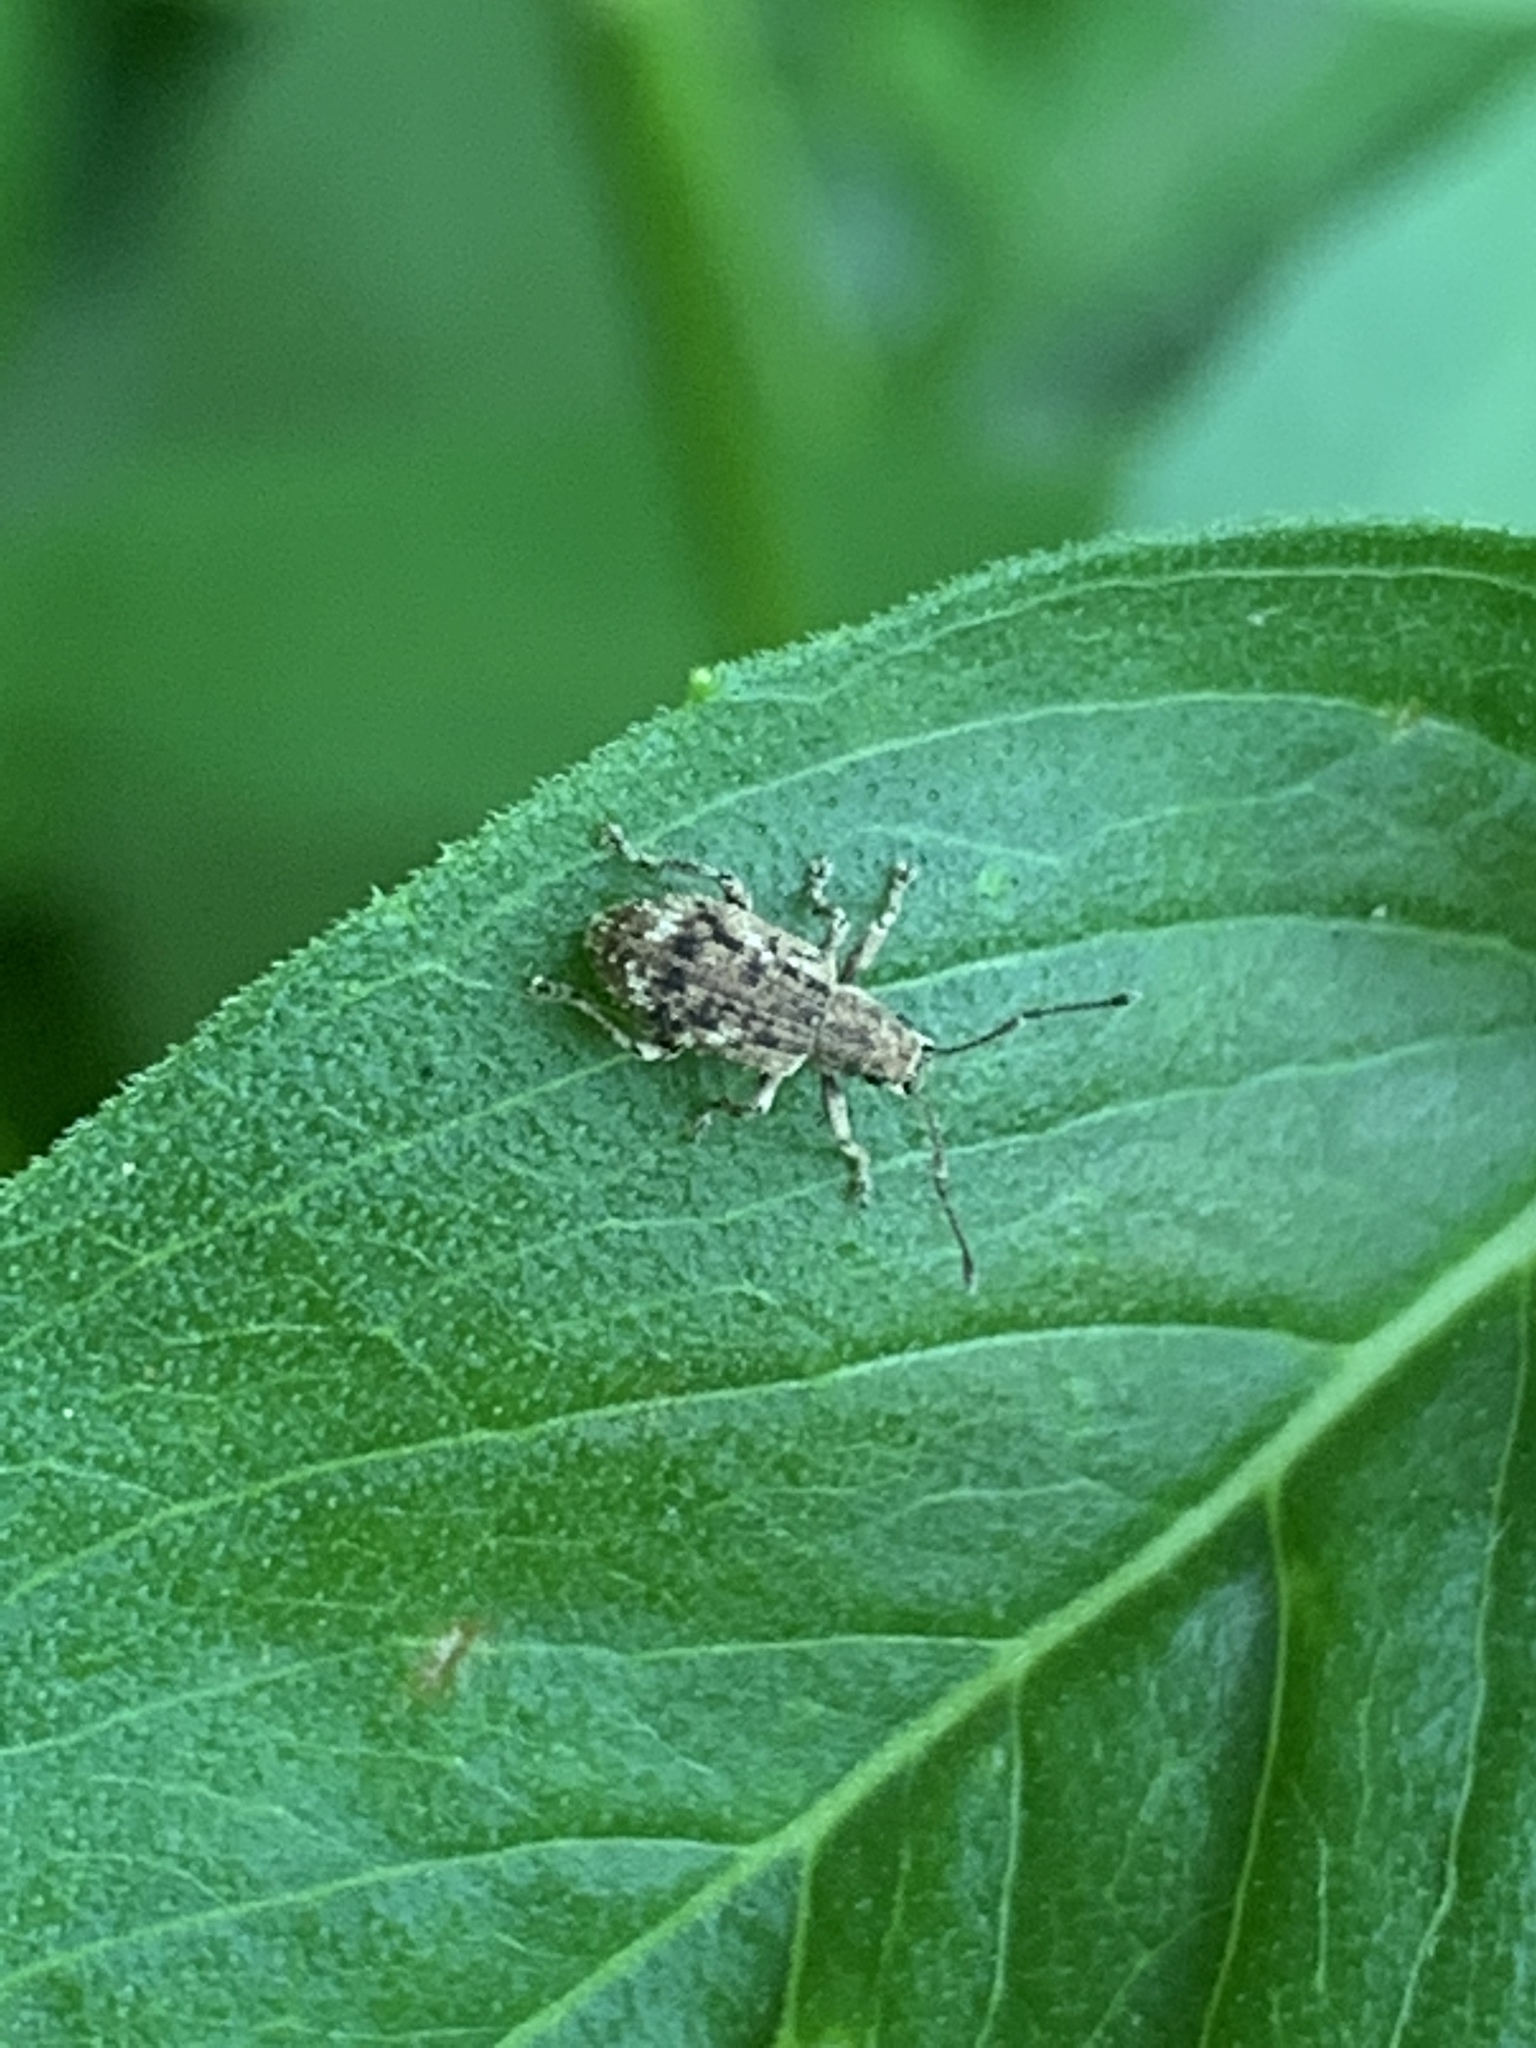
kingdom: Animalia
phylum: Arthropoda
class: Insecta
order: Coleoptera
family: Curculionidae
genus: Pseudoedophrys
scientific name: Pseudoedophrys hilleri
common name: Weevil
